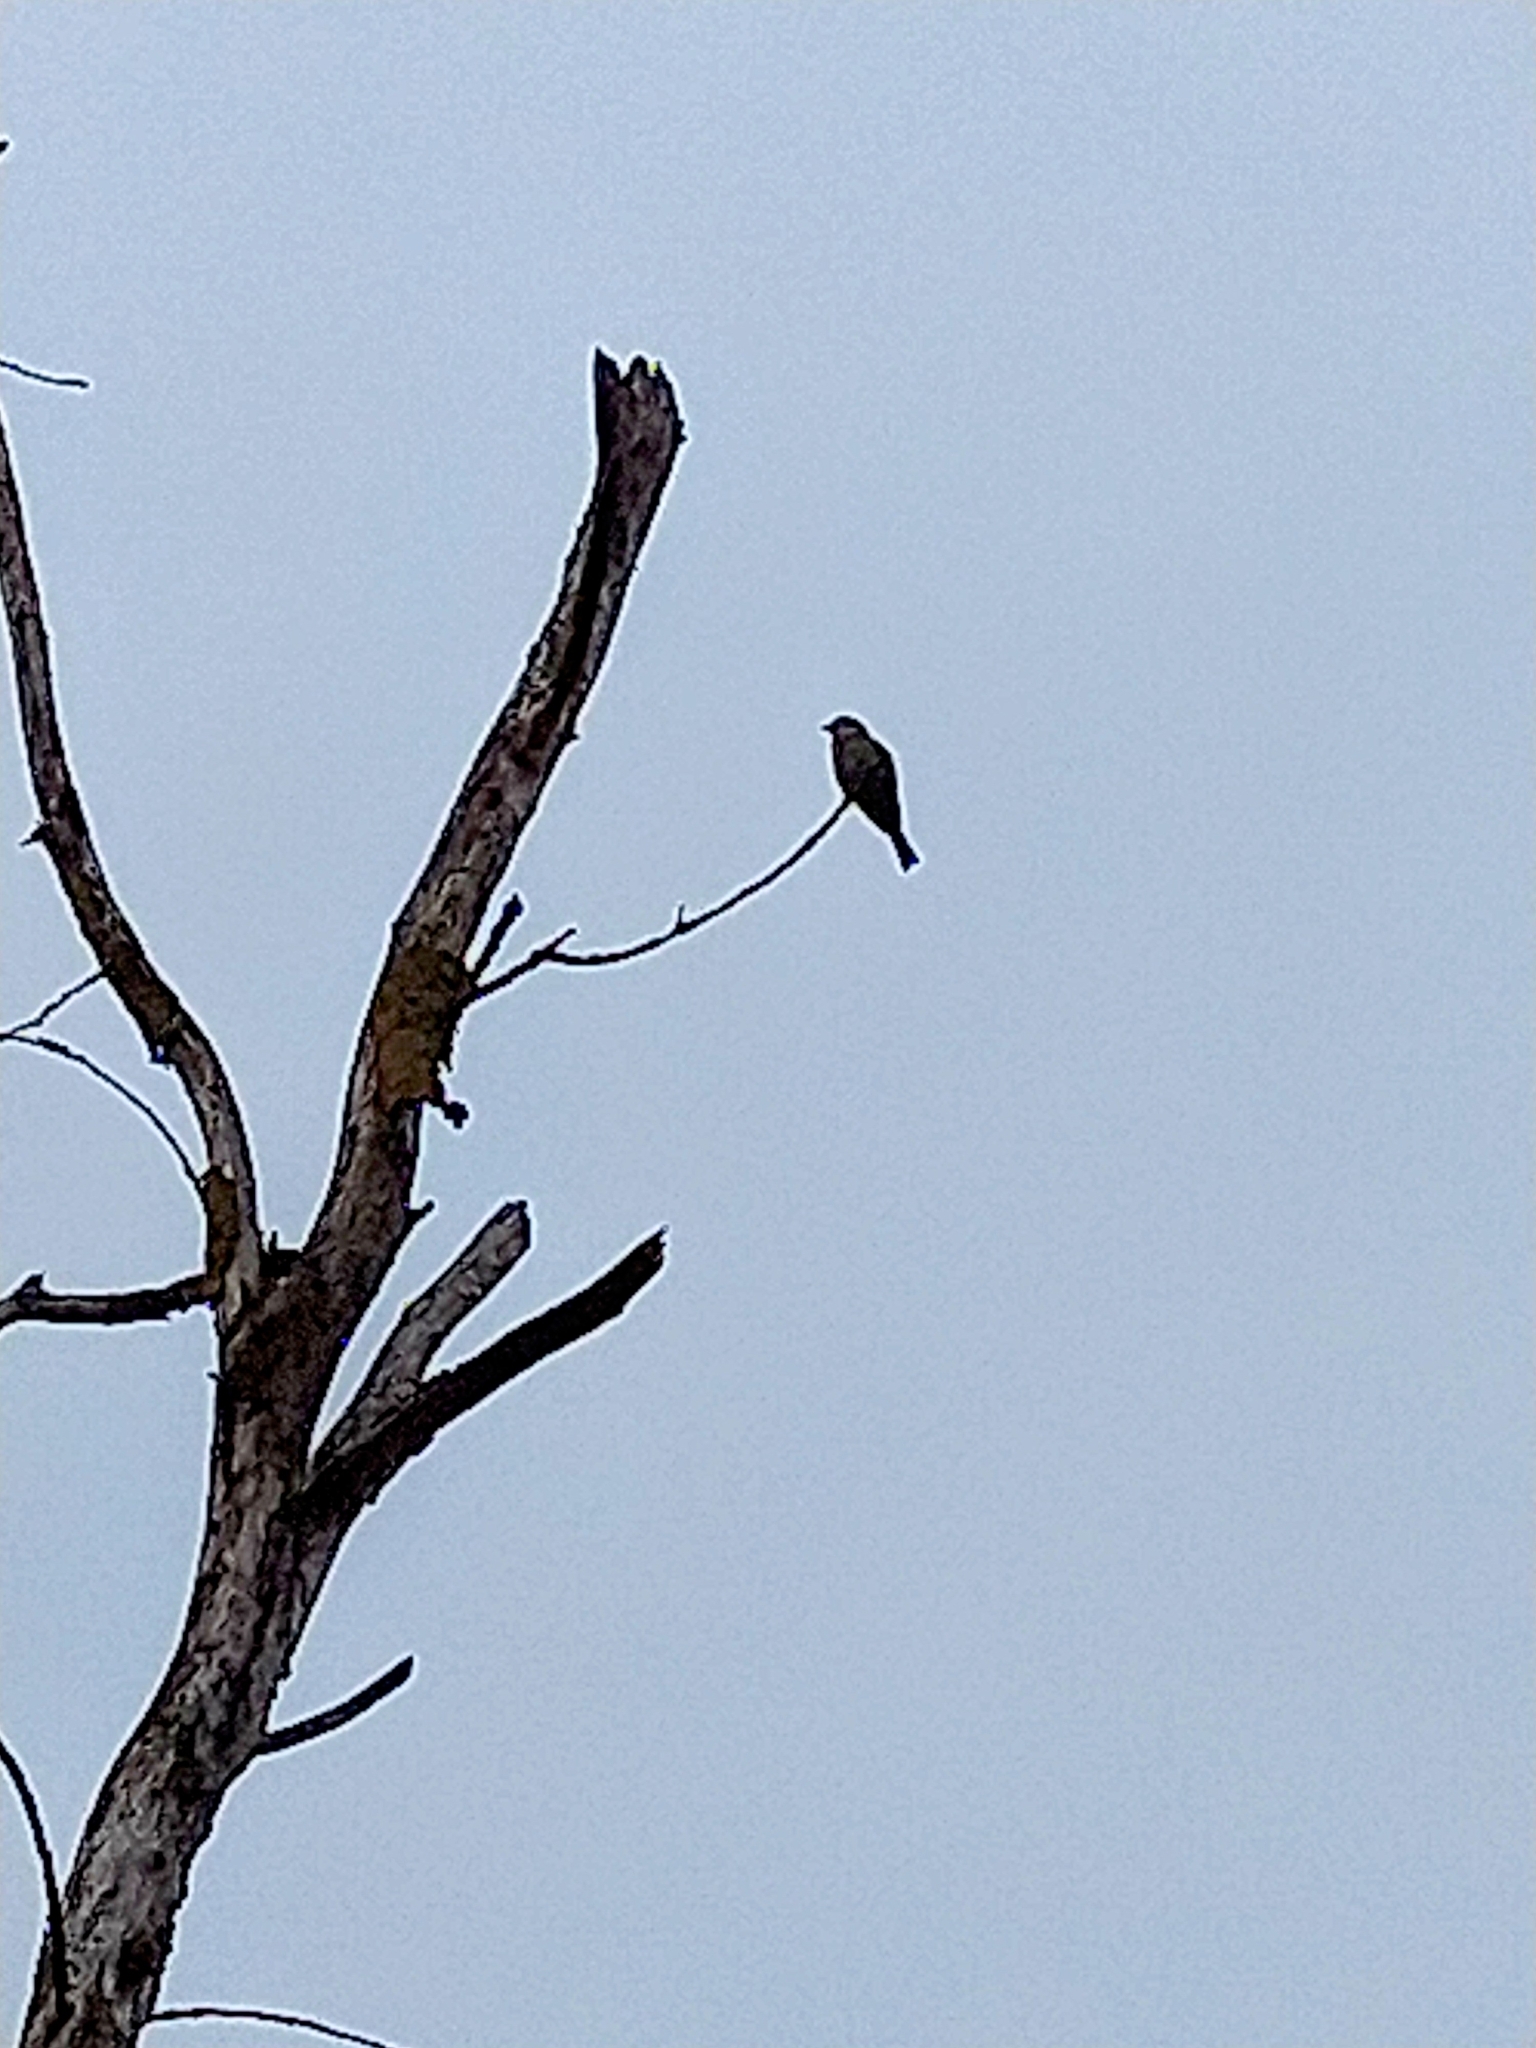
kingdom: Animalia
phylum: Chordata
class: Aves
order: Passeriformes
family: Fringillidae
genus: Haemorhous
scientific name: Haemorhous mexicanus
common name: House finch
